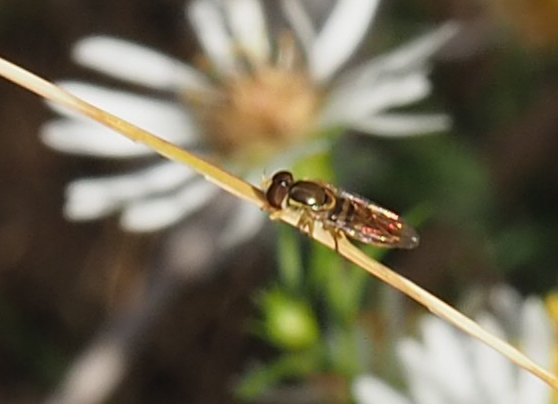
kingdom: Animalia
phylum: Arthropoda
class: Insecta
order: Diptera
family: Syrphidae
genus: Toxomerus
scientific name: Toxomerus
